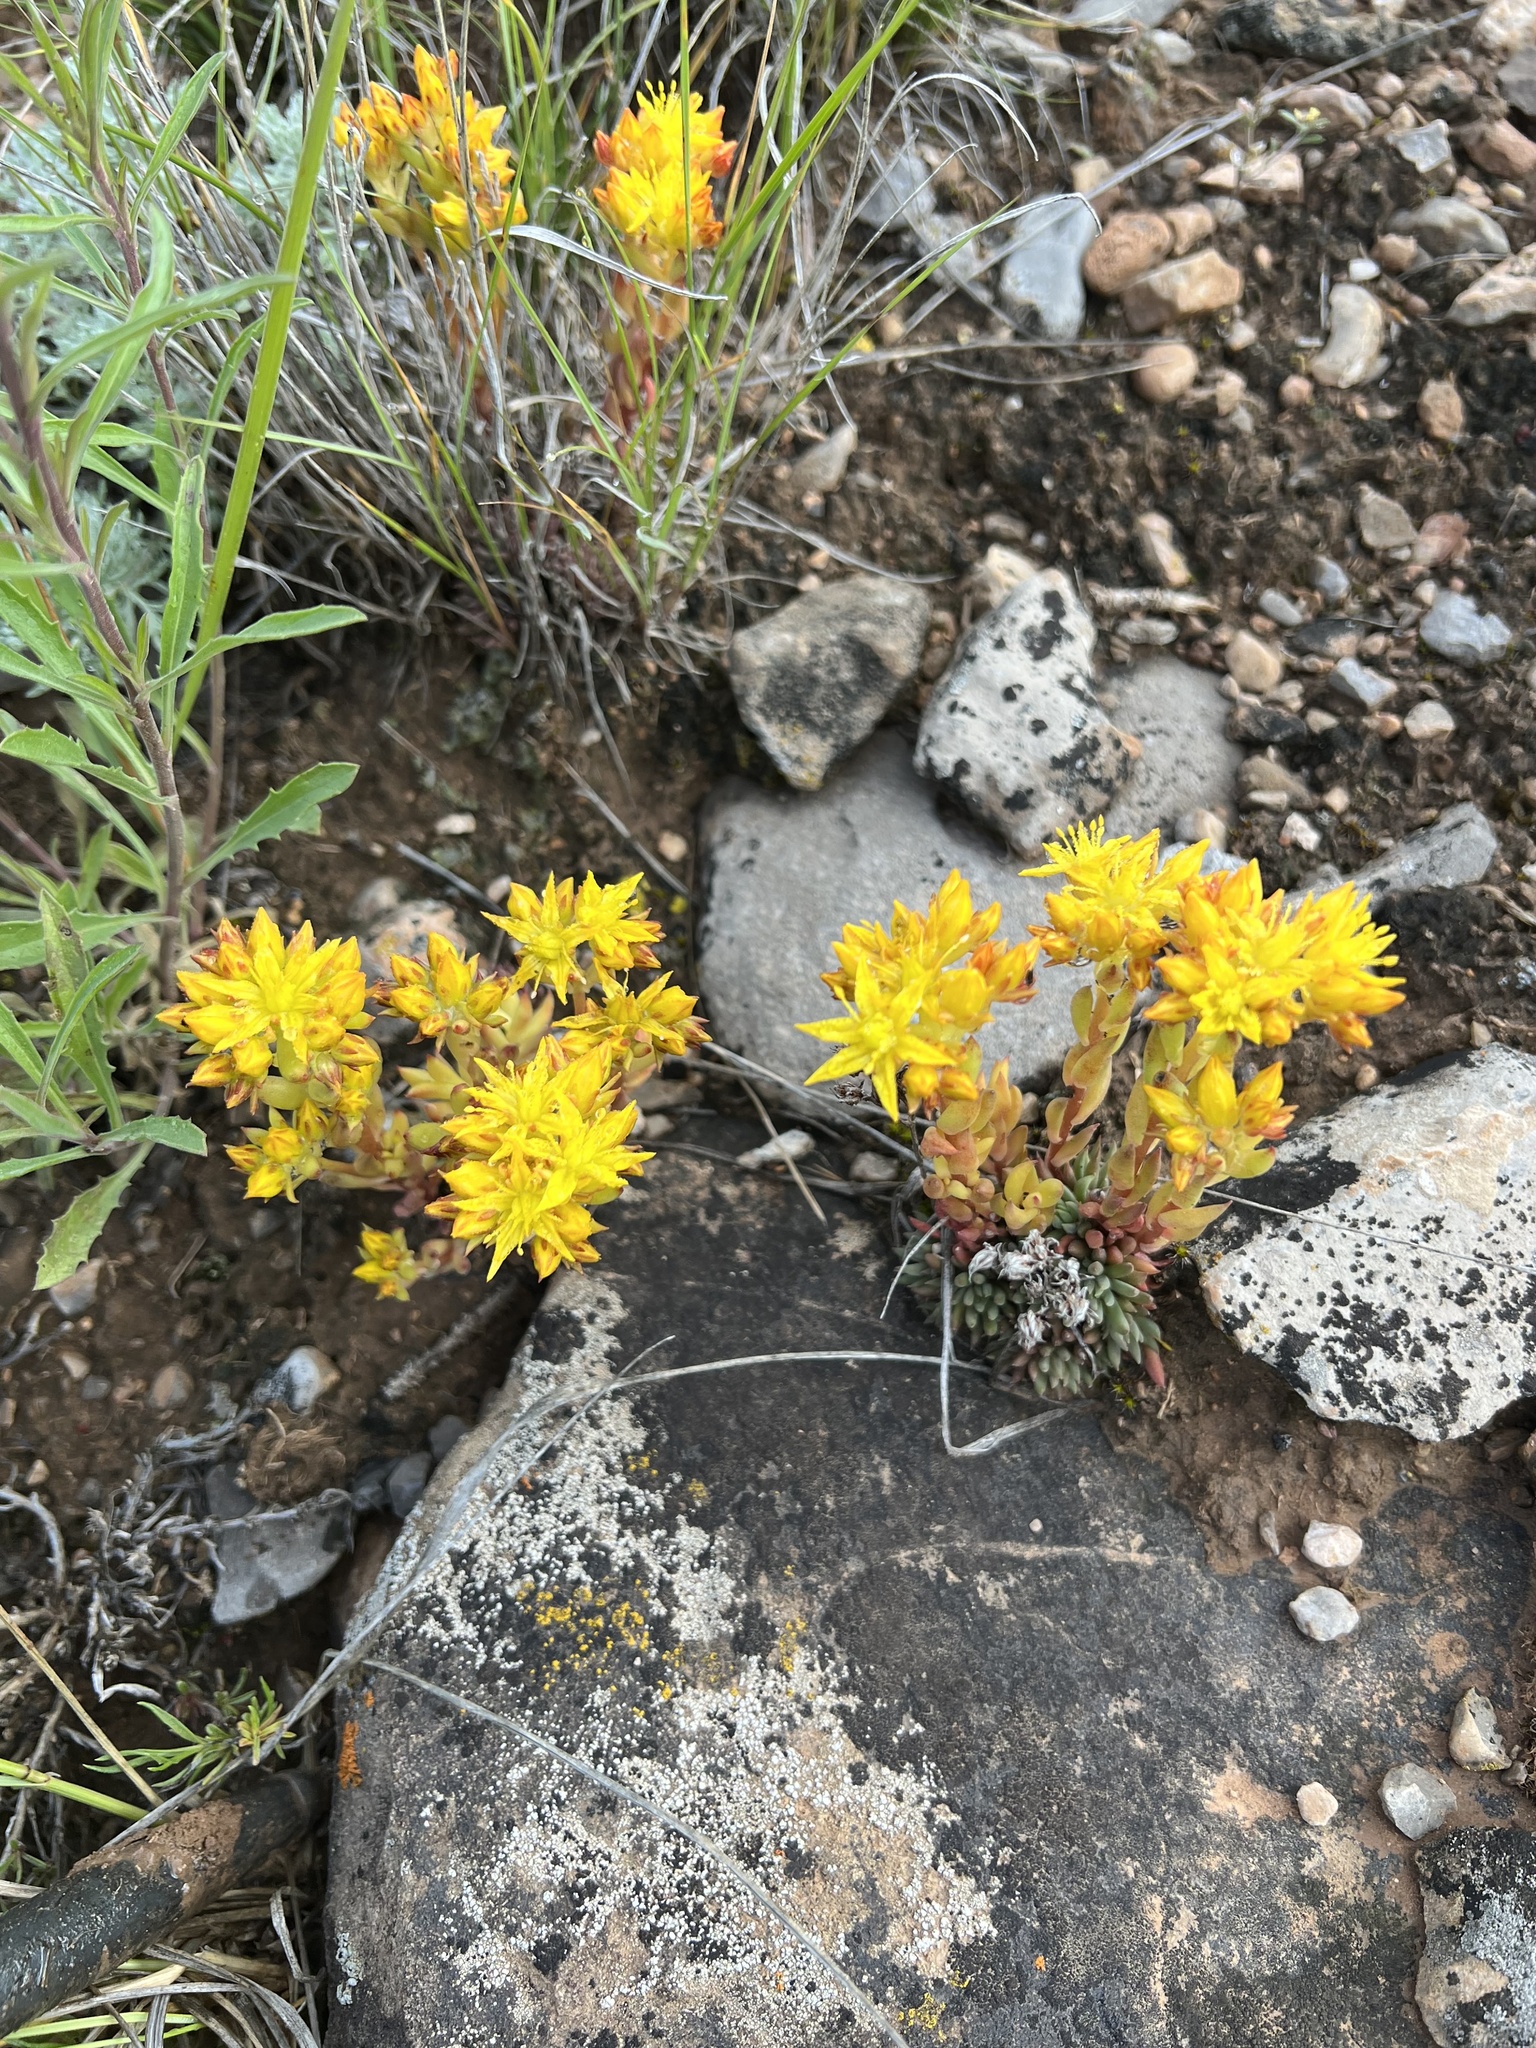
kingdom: Plantae
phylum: Tracheophyta
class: Magnoliopsida
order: Saxifragales
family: Crassulaceae
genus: Sedum
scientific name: Sedum lanceolatum
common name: Common stonecrop
